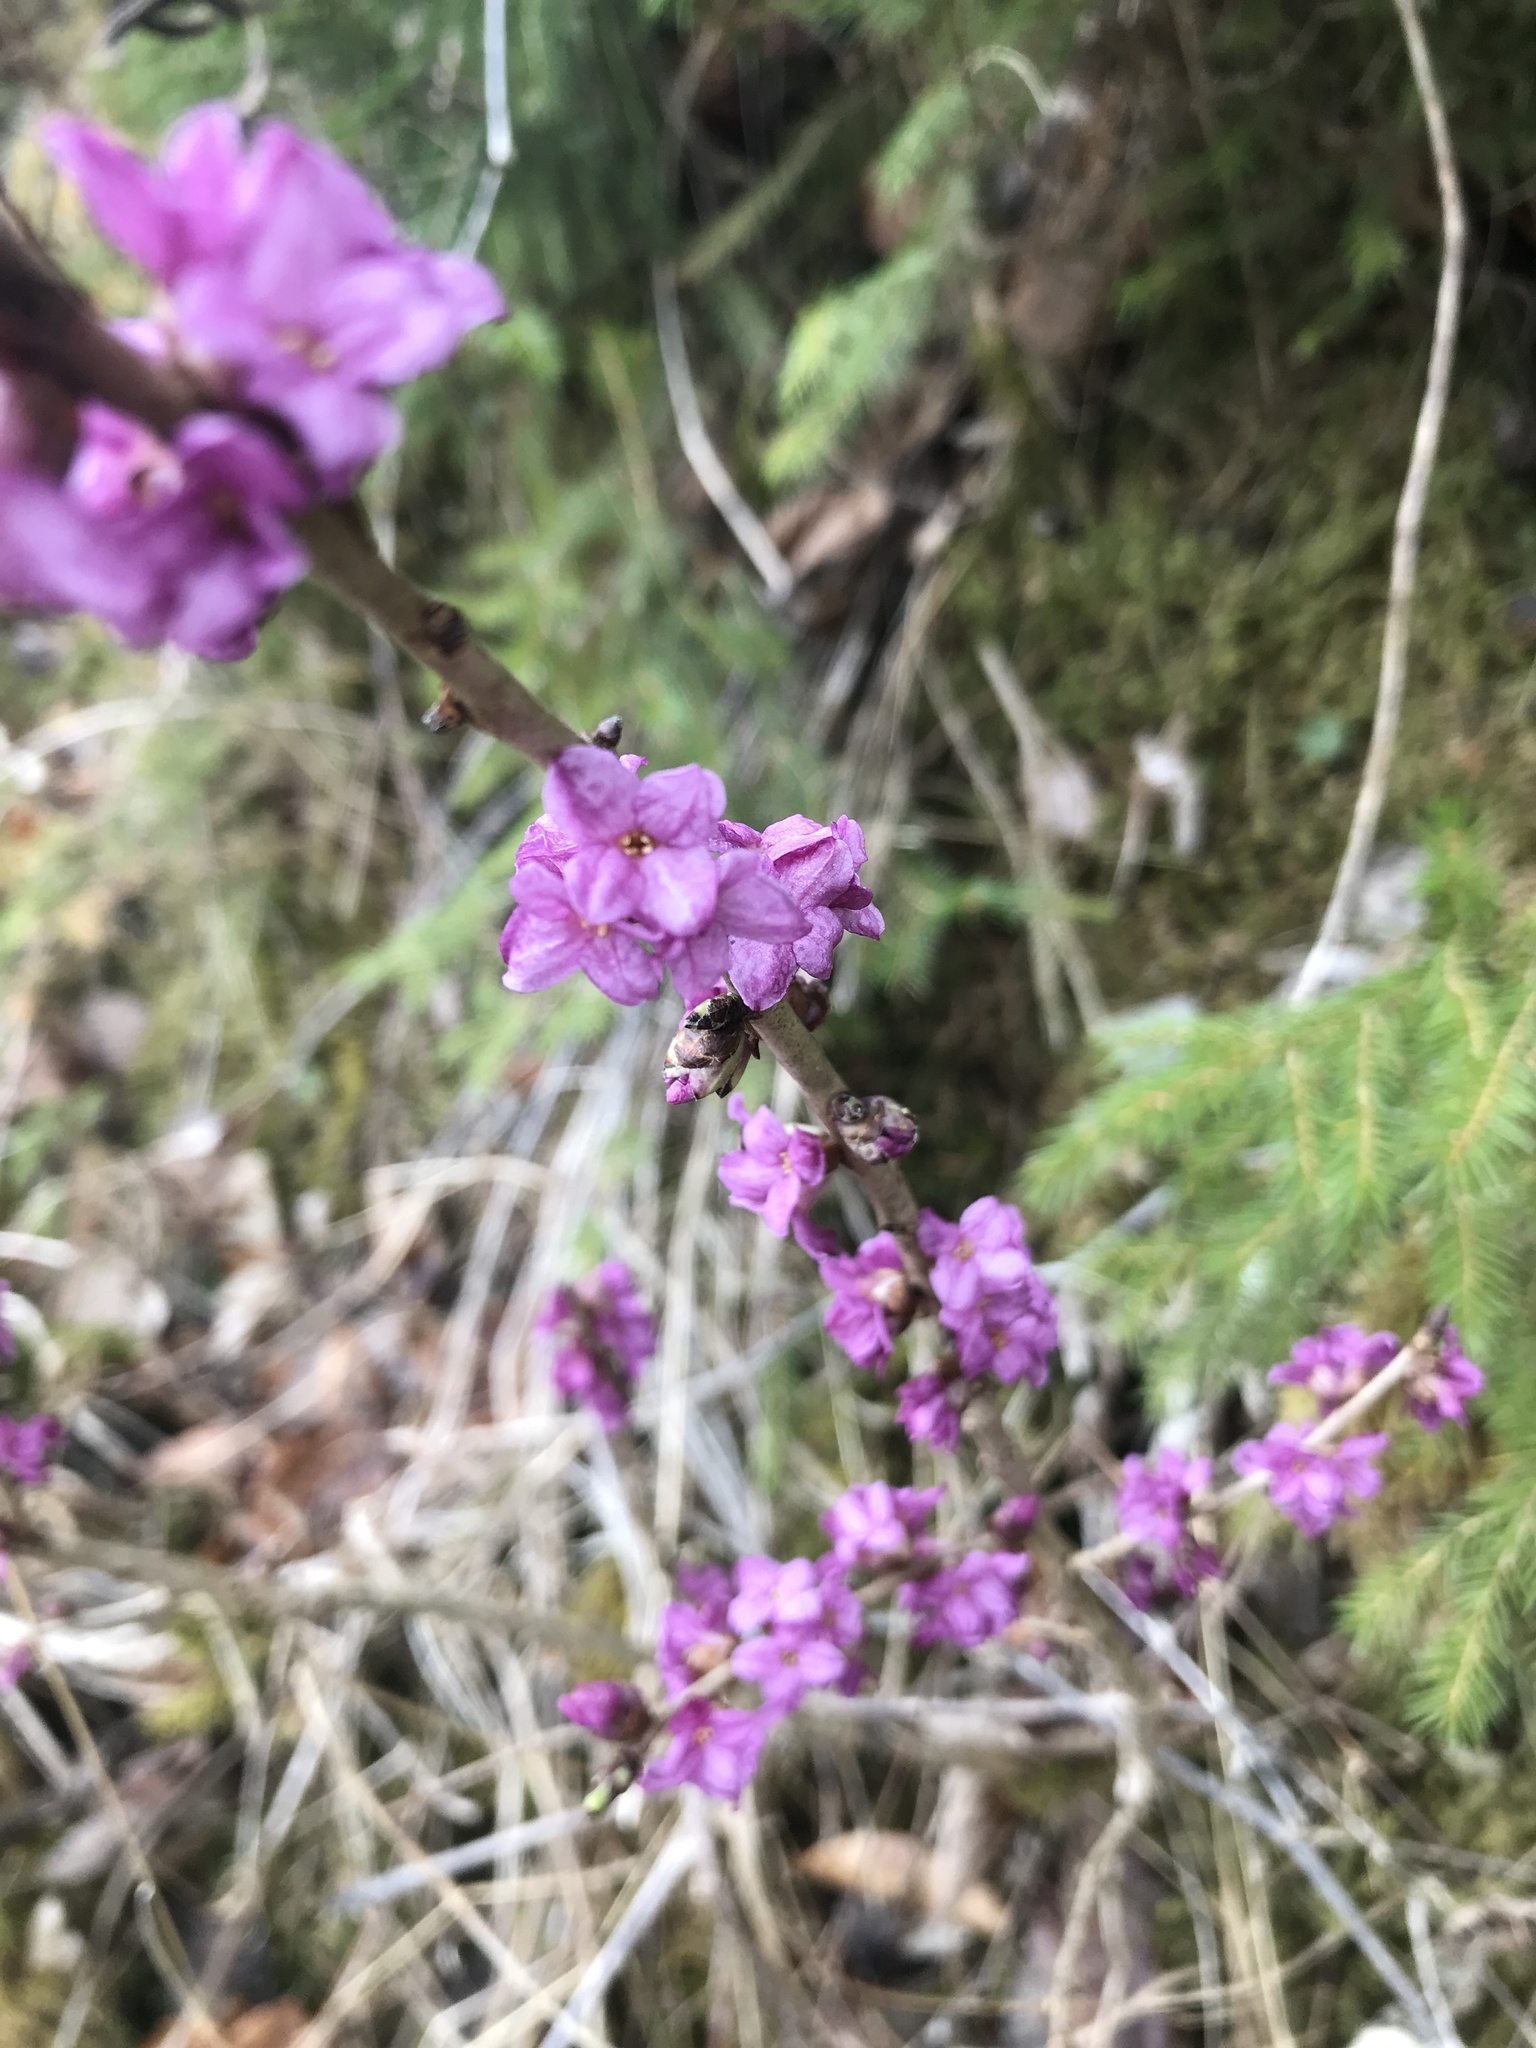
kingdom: Plantae
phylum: Tracheophyta
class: Magnoliopsida
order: Malvales
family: Thymelaeaceae
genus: Daphne
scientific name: Daphne mezereum
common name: Mezereon
